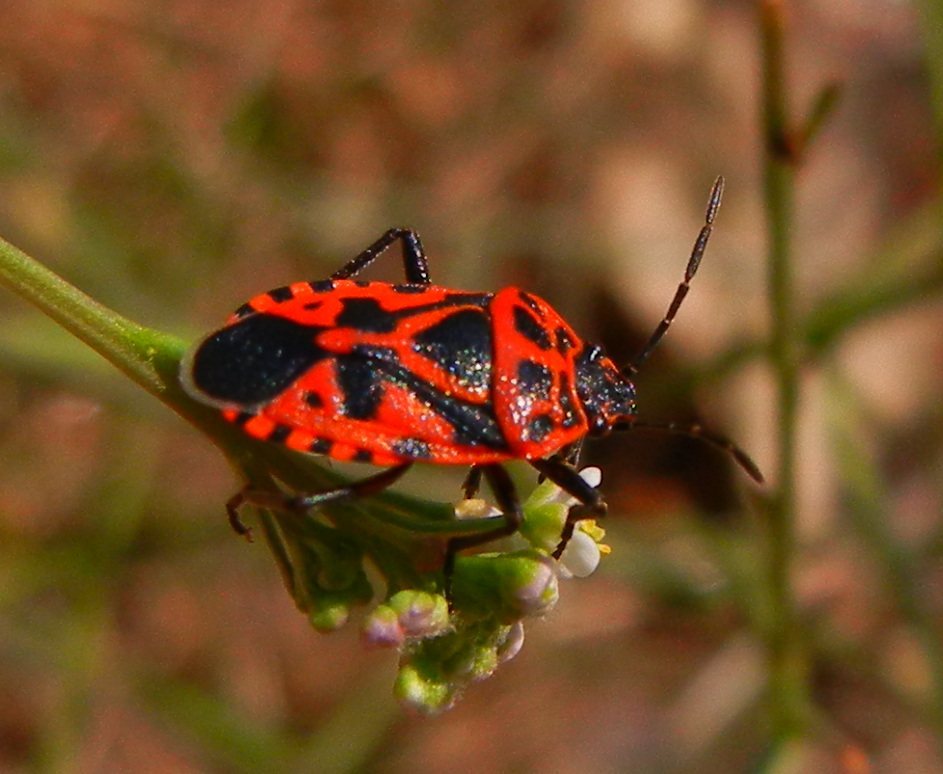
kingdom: Animalia
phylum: Arthropoda
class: Insecta
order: Hemiptera
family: Pentatomidae
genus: Eurydema
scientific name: Eurydema ventralis
